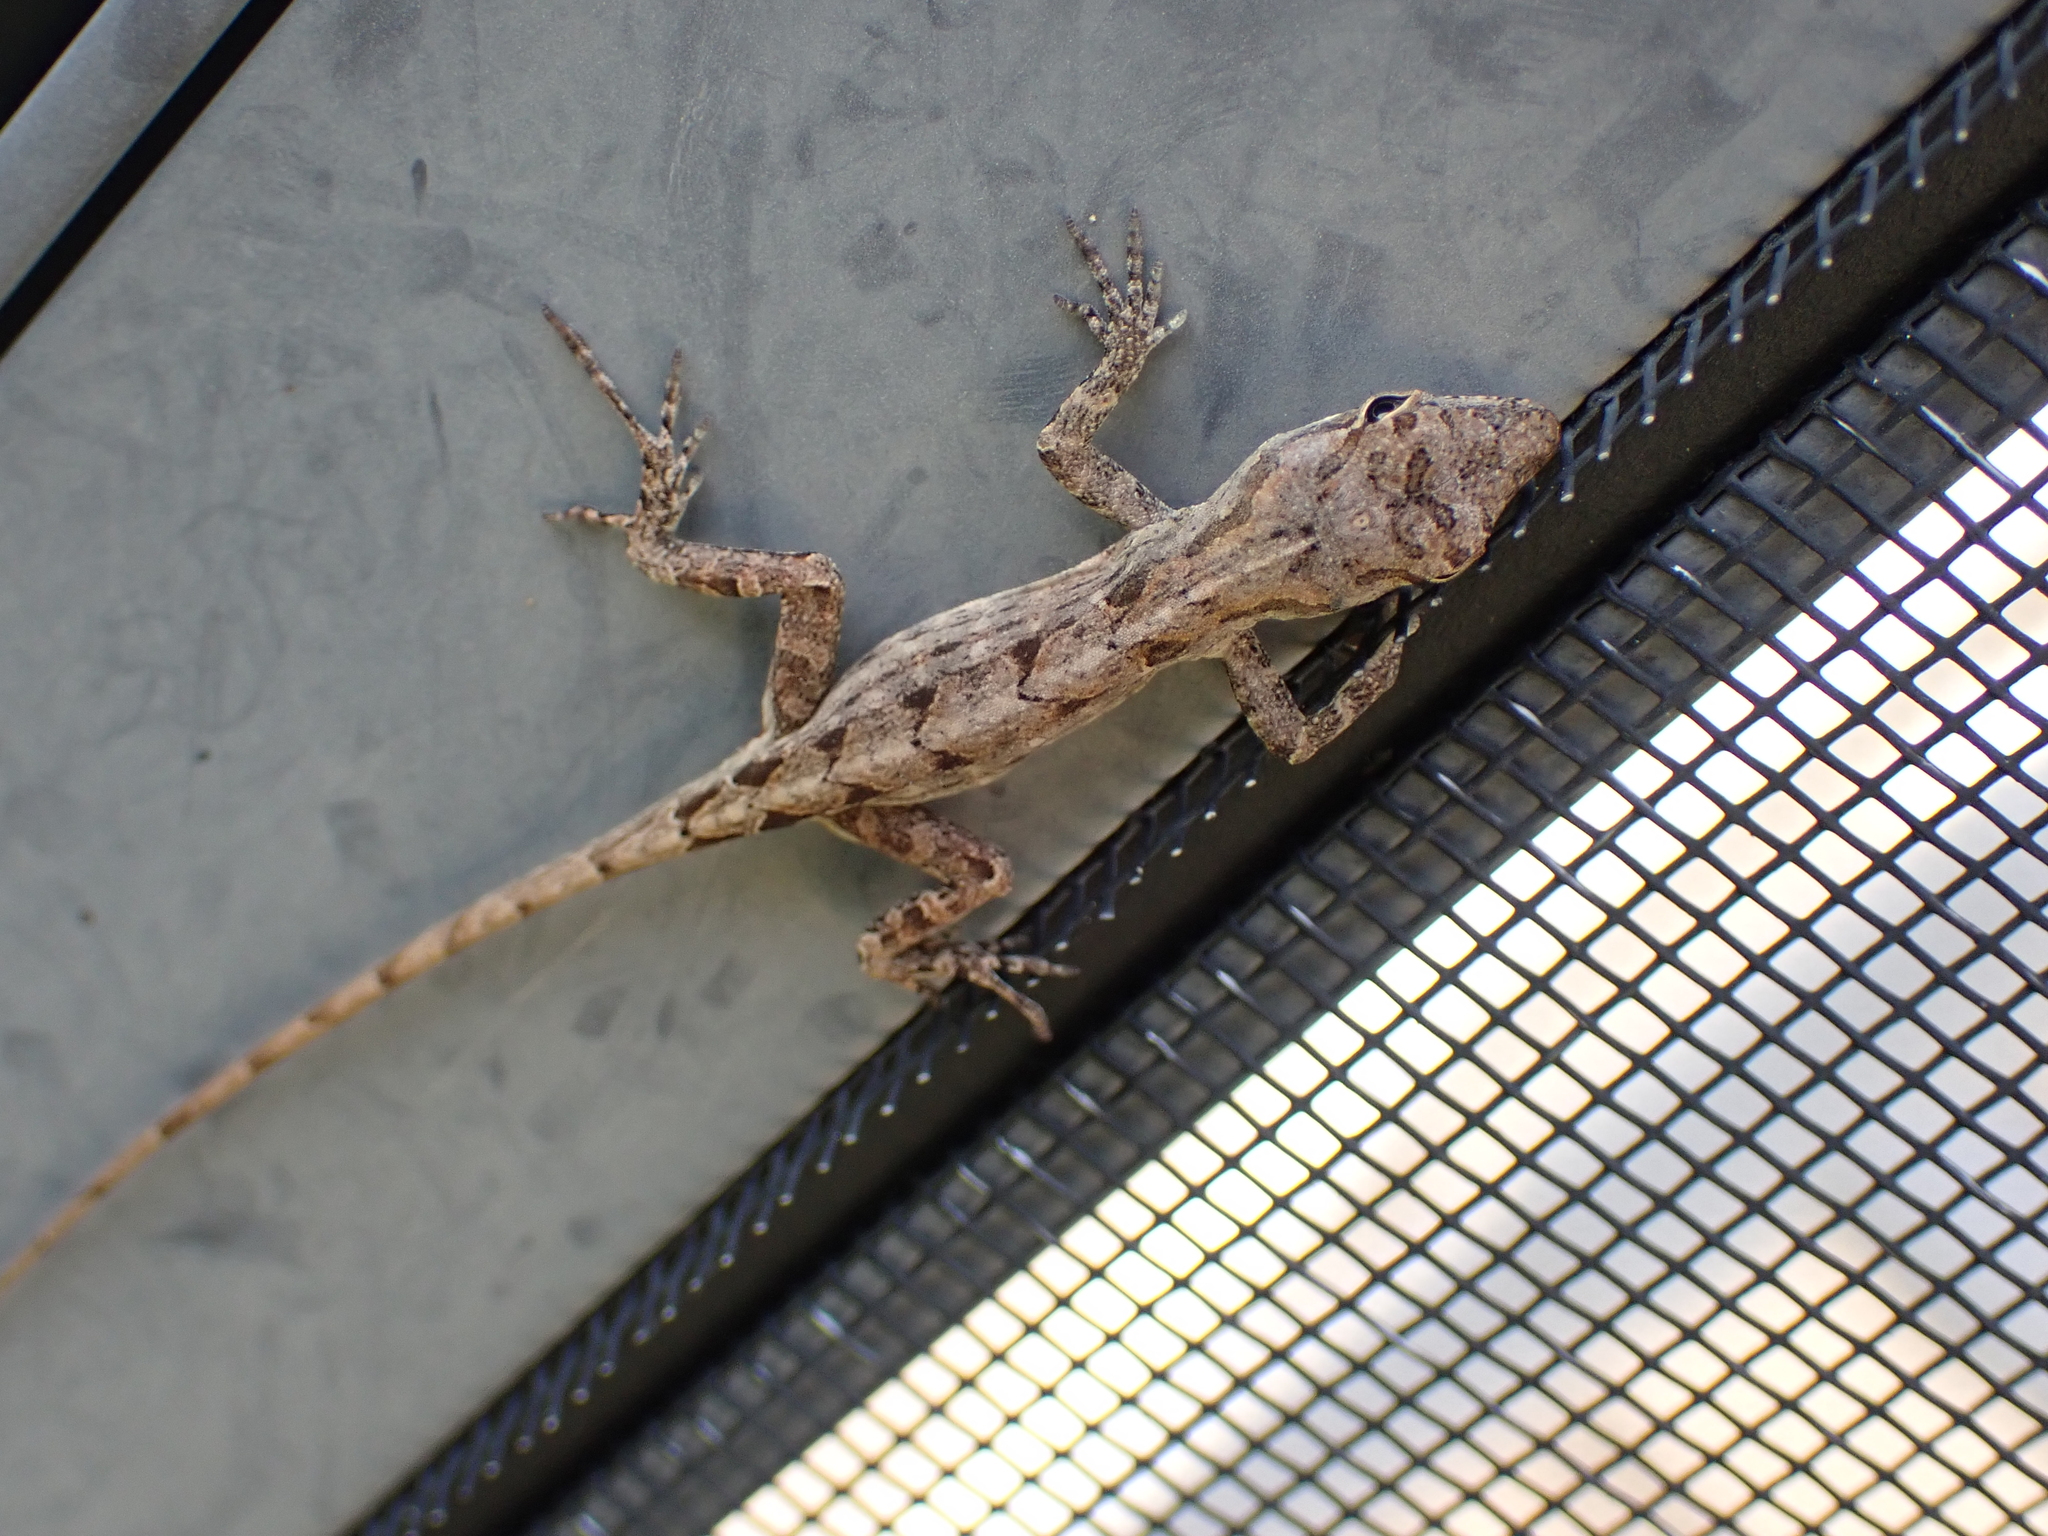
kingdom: Animalia
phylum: Chordata
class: Squamata
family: Dactyloidae
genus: Anolis
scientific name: Anolis sagrei
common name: Brown anole
